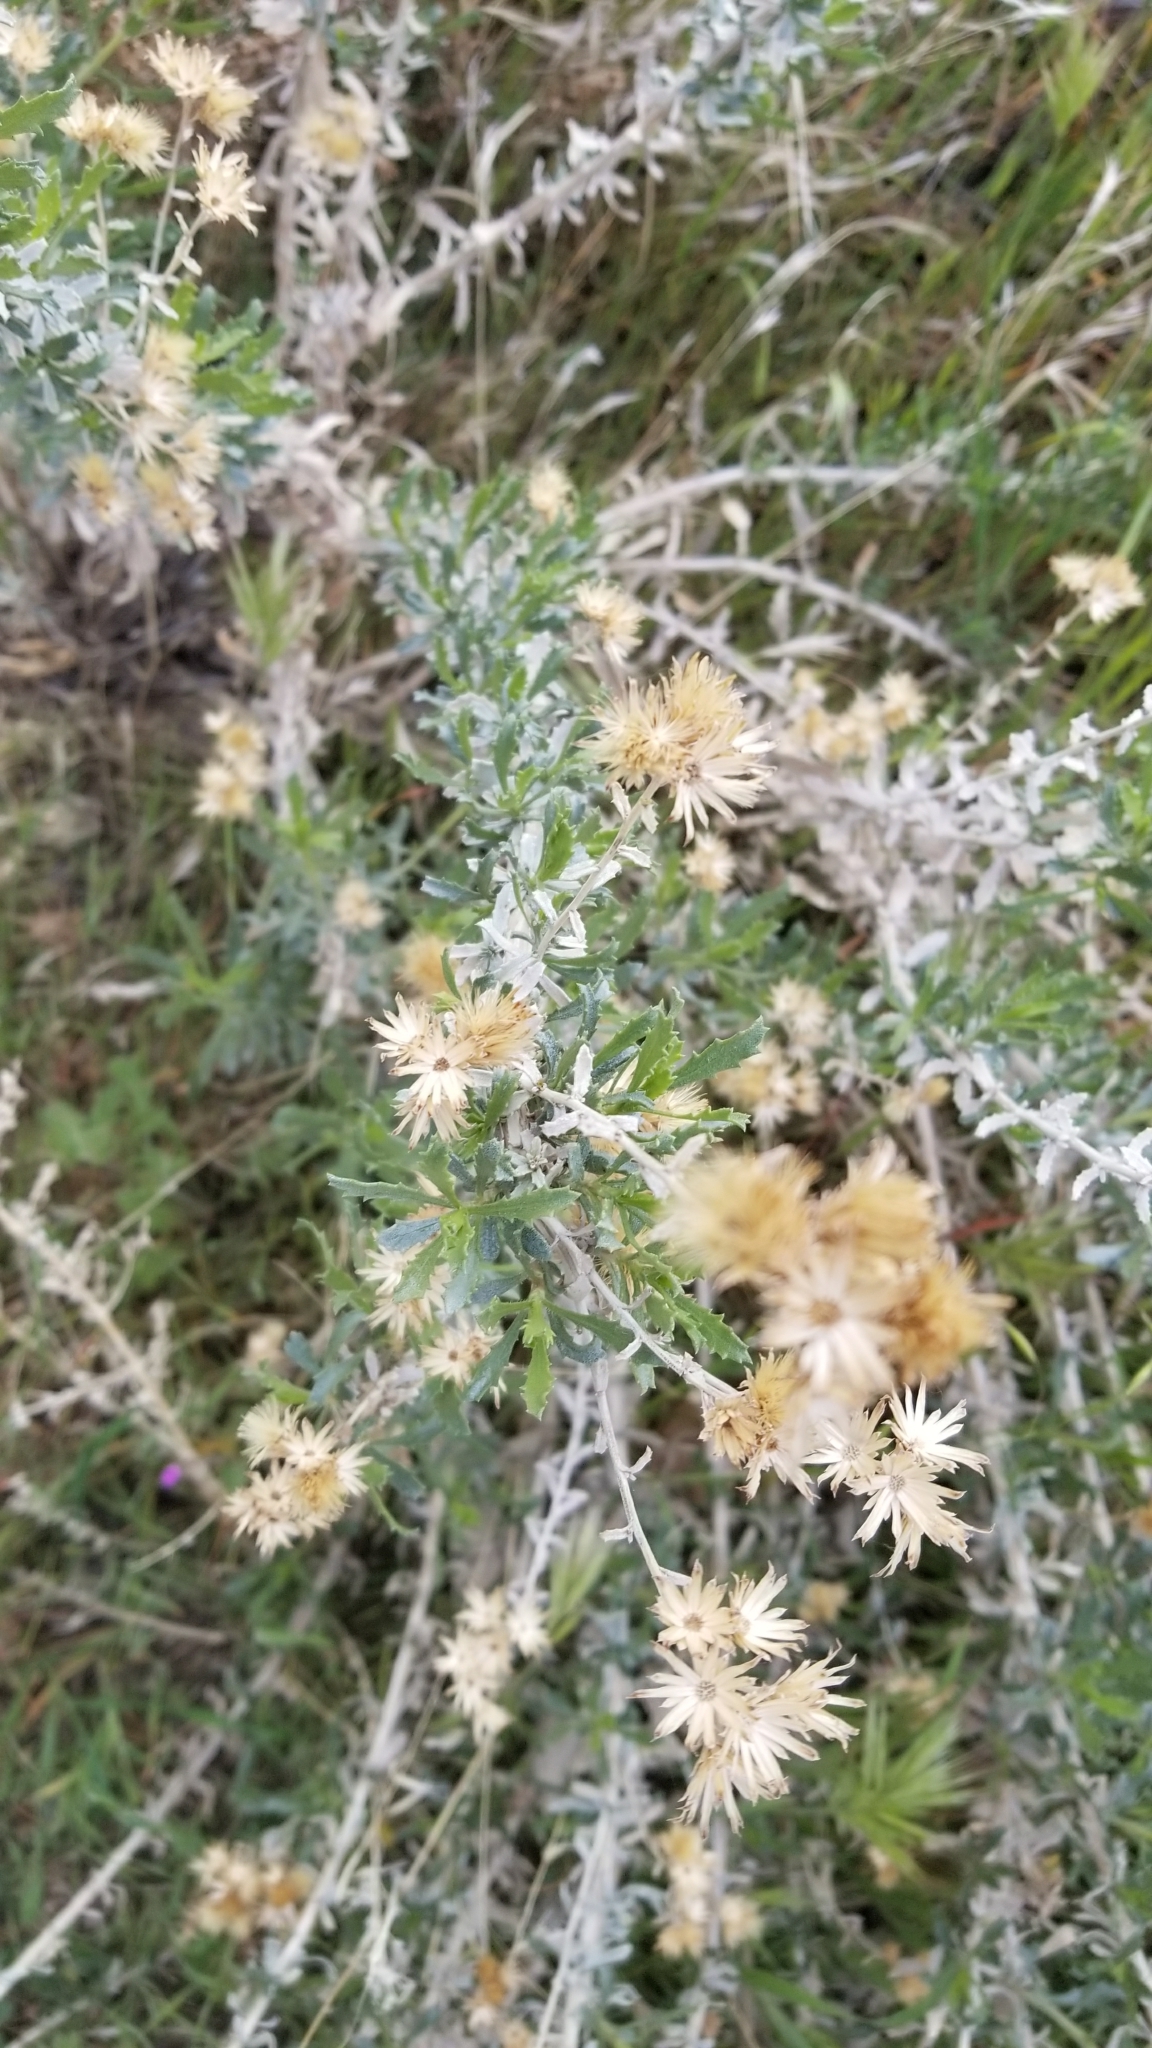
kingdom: Plantae
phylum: Tracheophyta
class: Magnoliopsida
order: Asterales
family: Asteraceae
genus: Isocoma
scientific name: Isocoma acradenia
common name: Alkali jimmyweed
